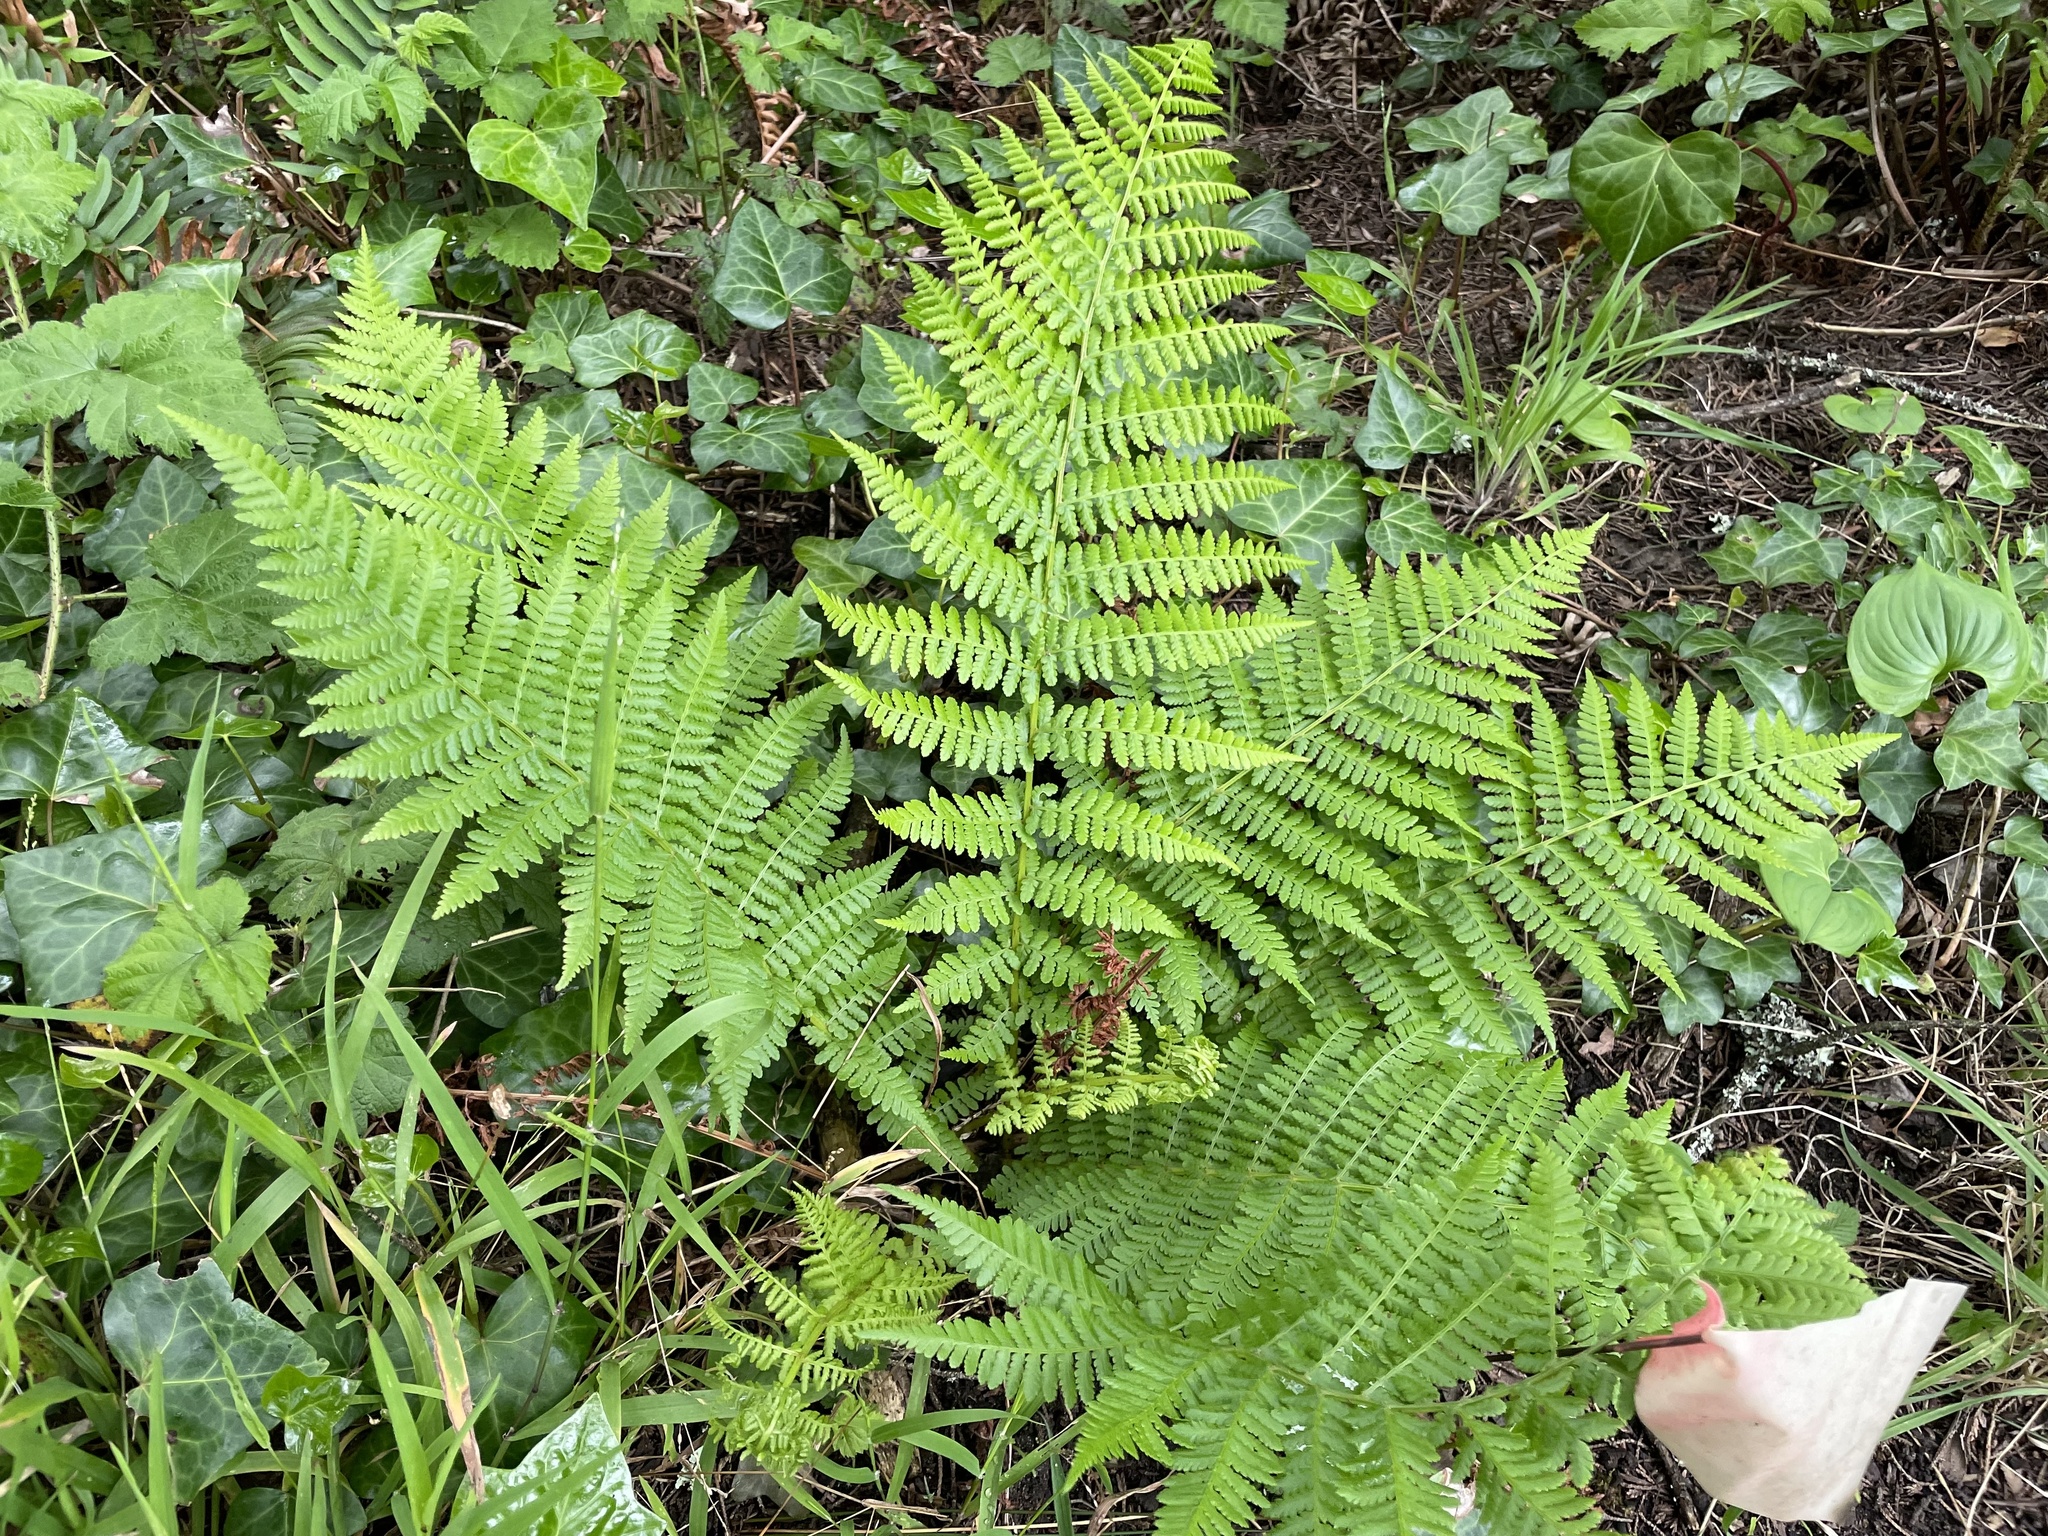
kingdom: Plantae
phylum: Tracheophyta
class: Polypodiopsida
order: Polypodiales
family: Athyriaceae
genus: Athyrium
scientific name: Athyrium cyclosorum
